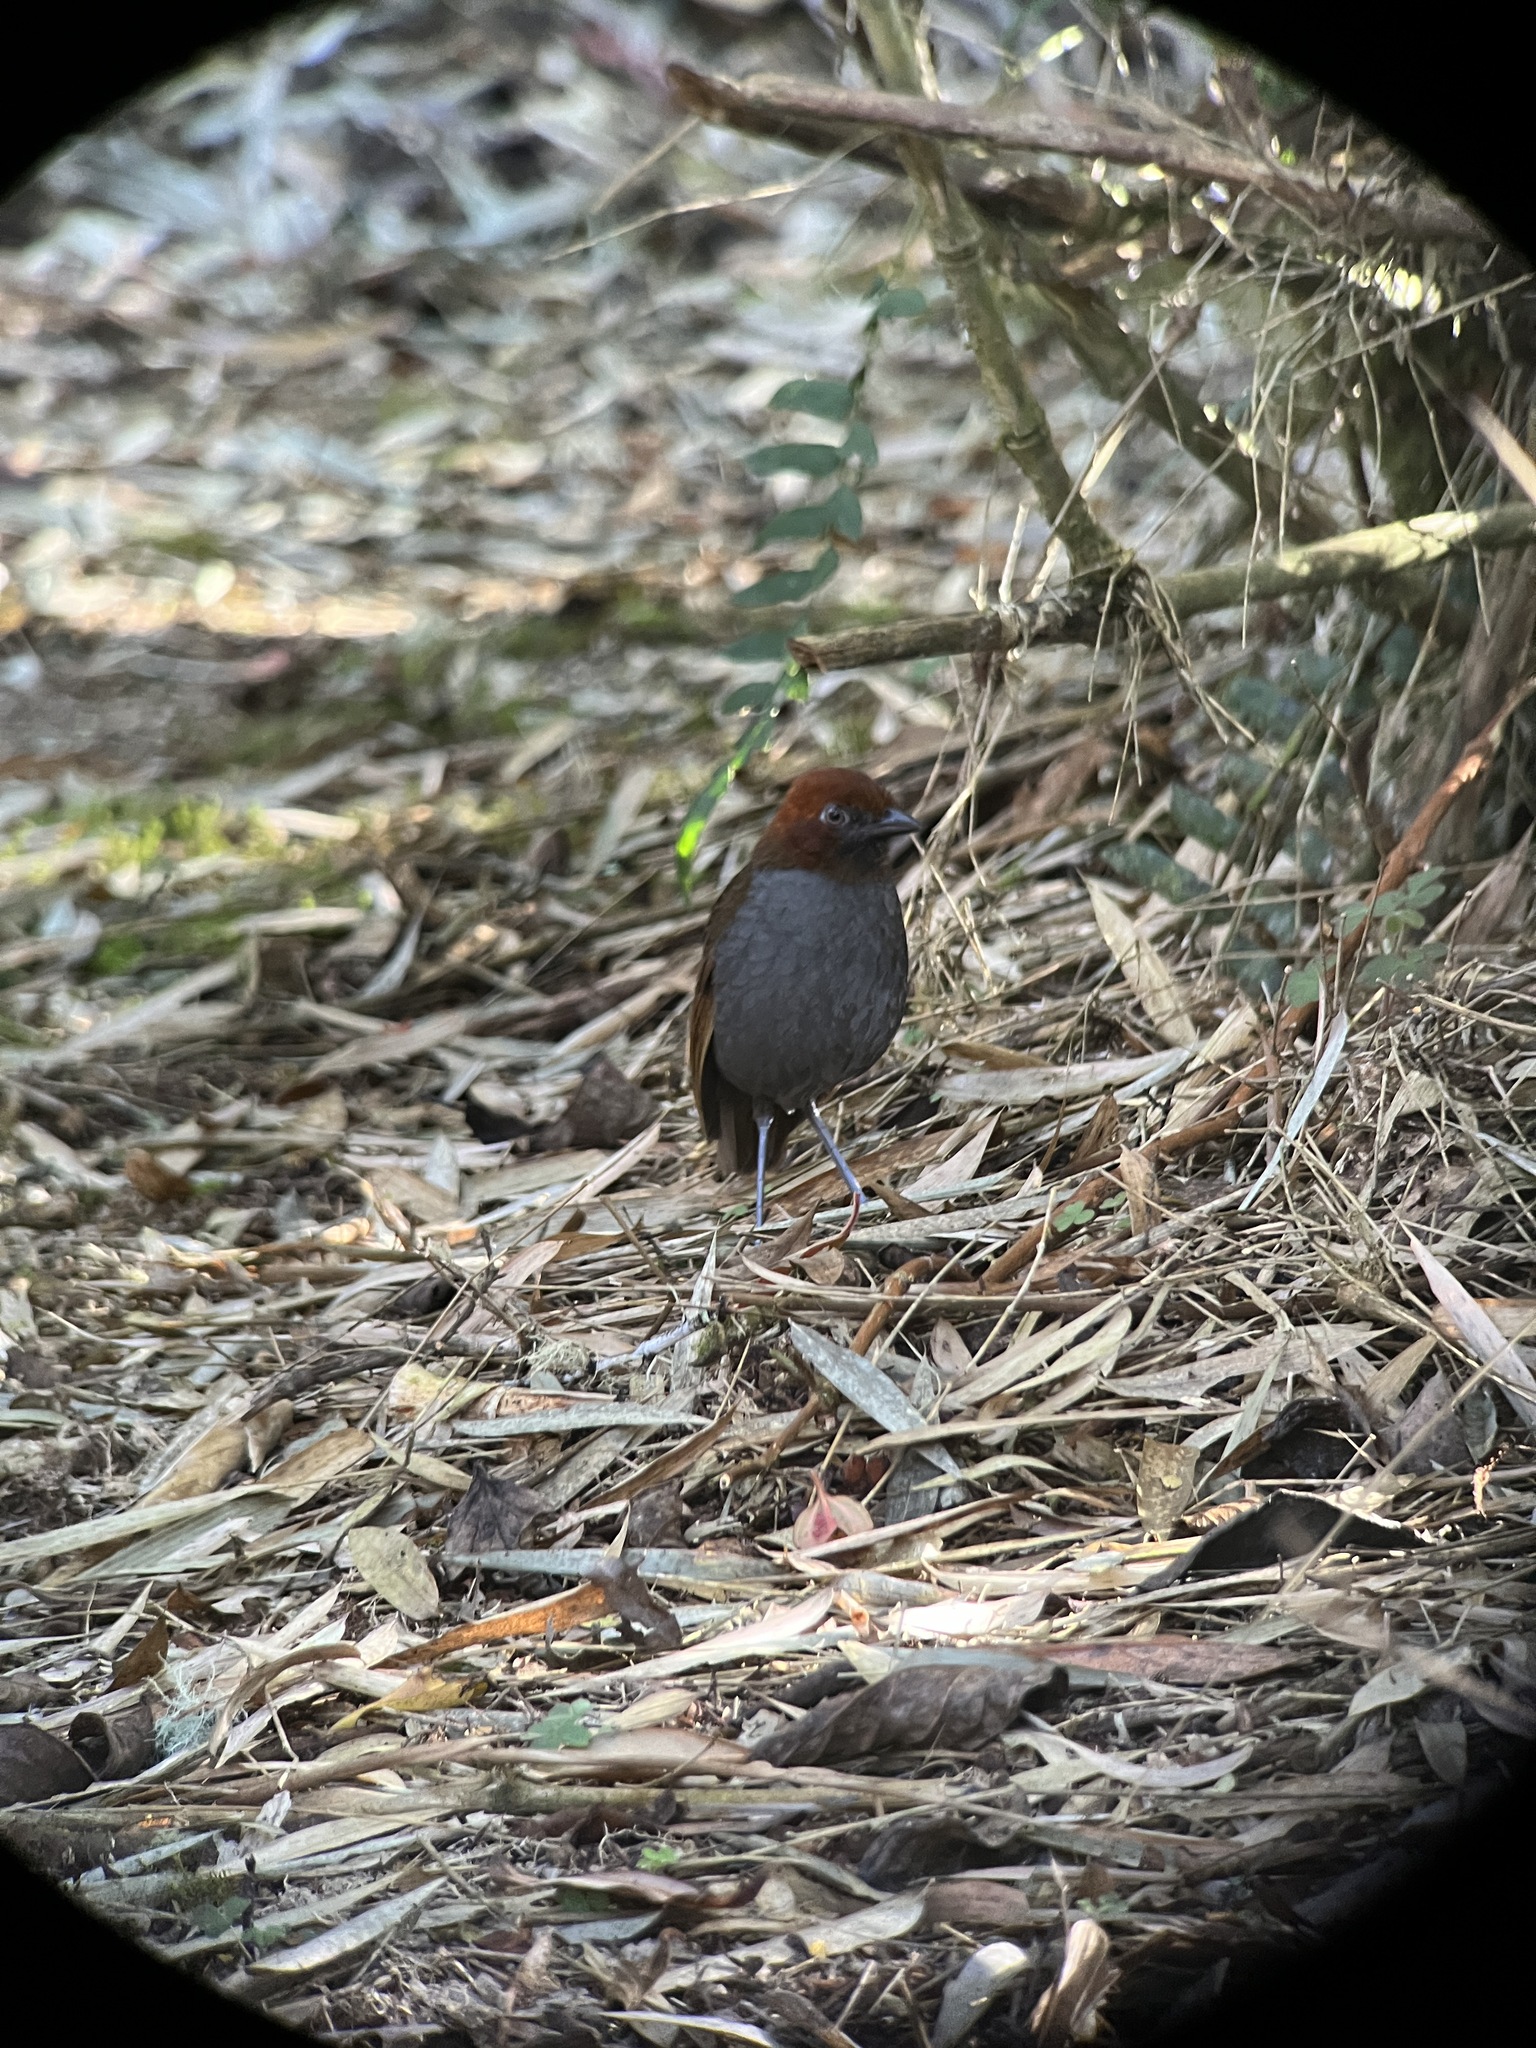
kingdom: Animalia
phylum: Chordata
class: Aves
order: Passeriformes
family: Grallariidae
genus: Grallaria
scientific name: Grallaria nuchalis
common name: Chestnut-naped antpitta
